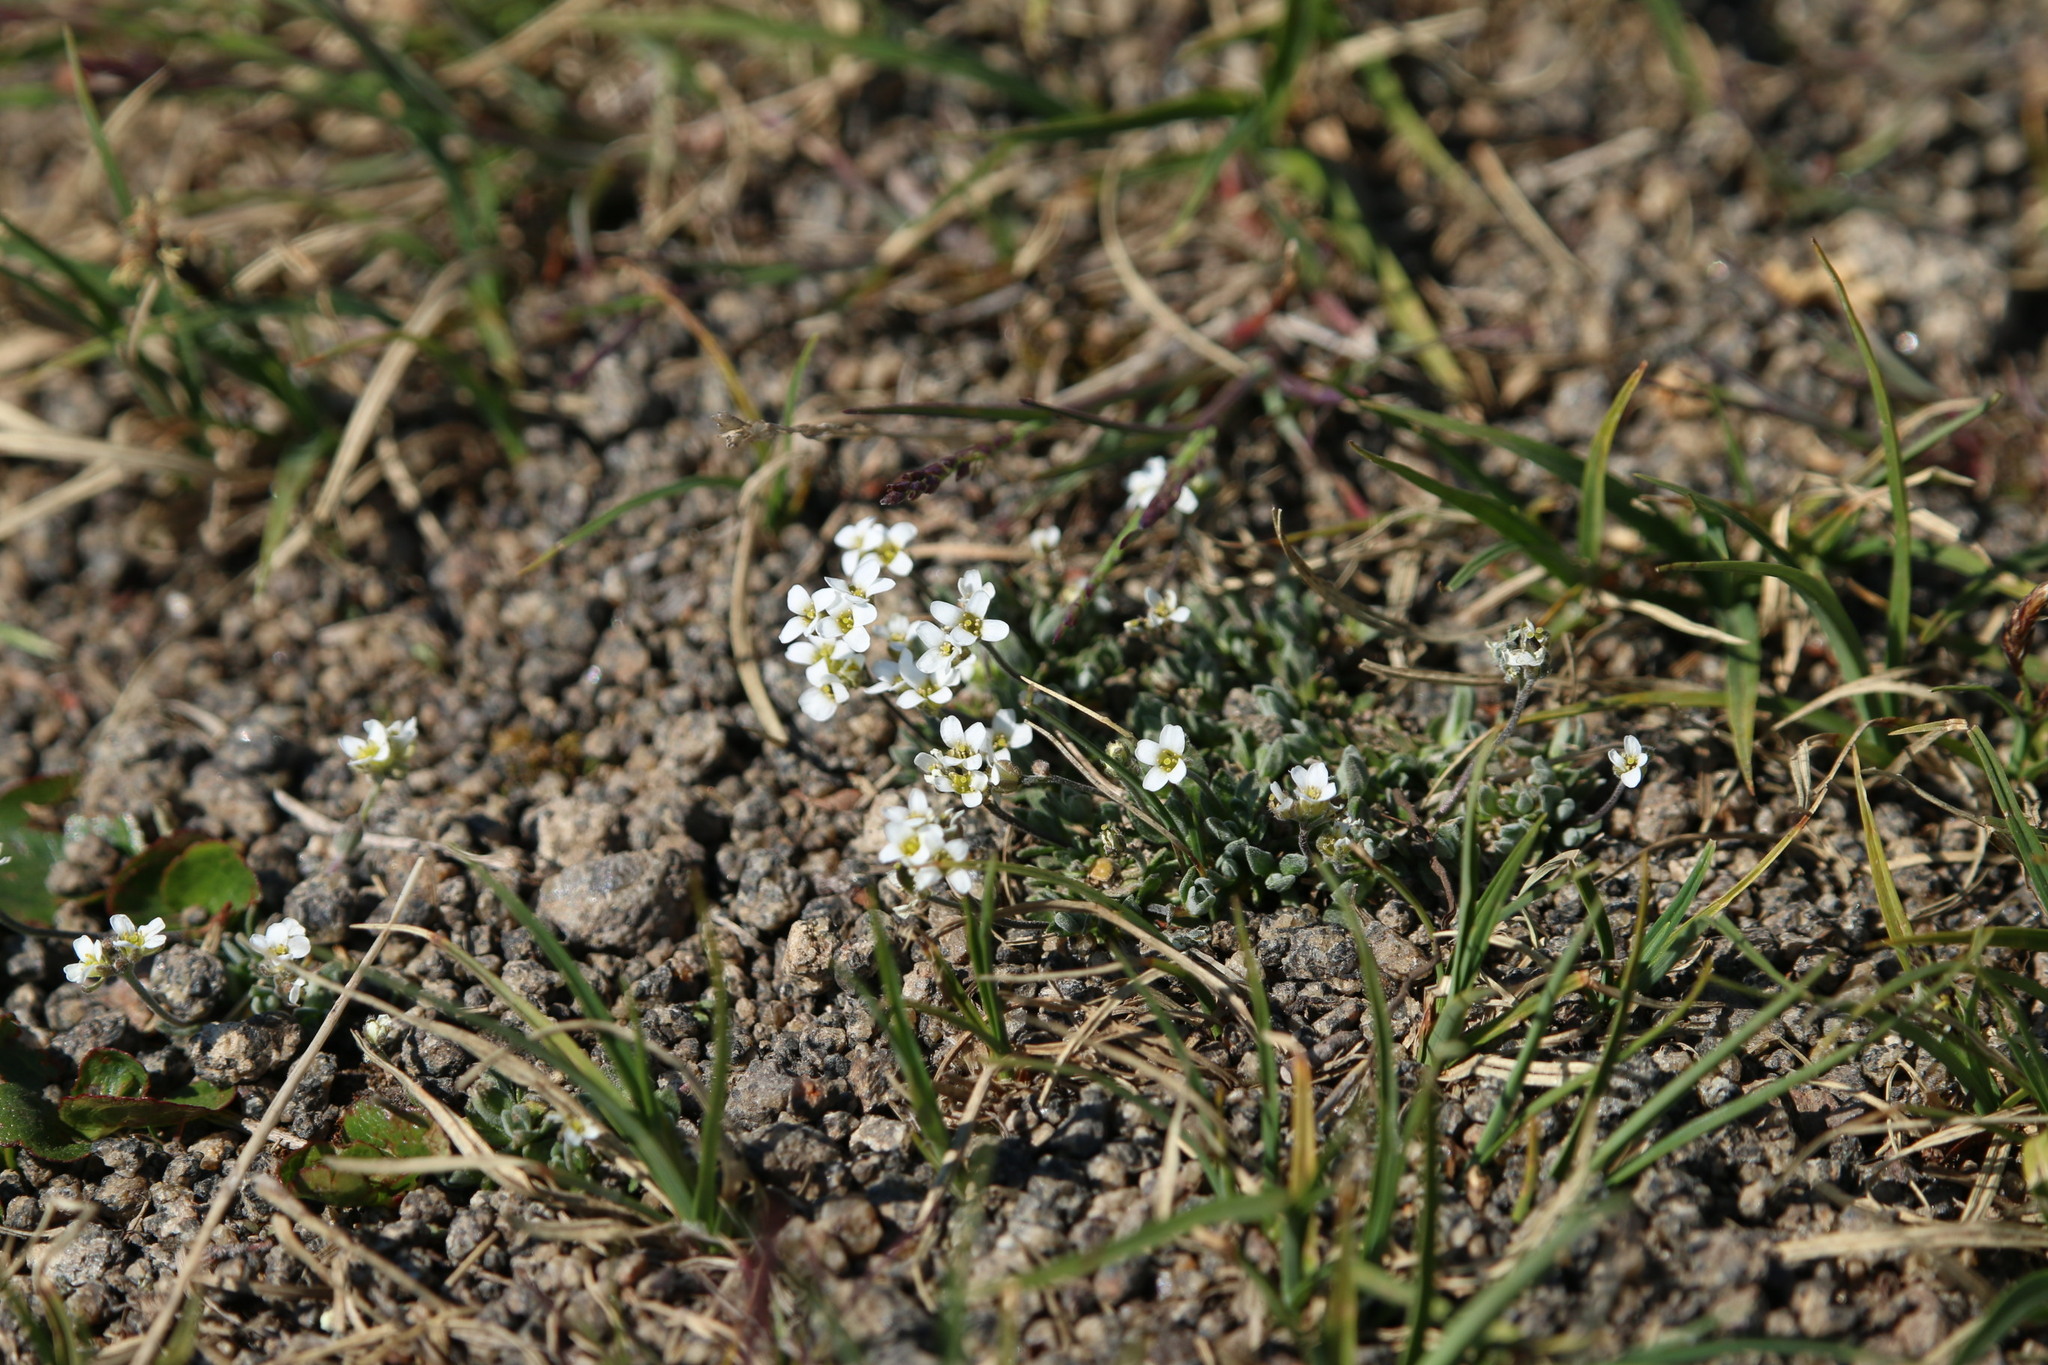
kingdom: Plantae
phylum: Tracheophyta
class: Magnoliopsida
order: Brassicales
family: Brassicaceae
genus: Draba
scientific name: Draba cinerea
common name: Ash-coloured whitlow-grass
